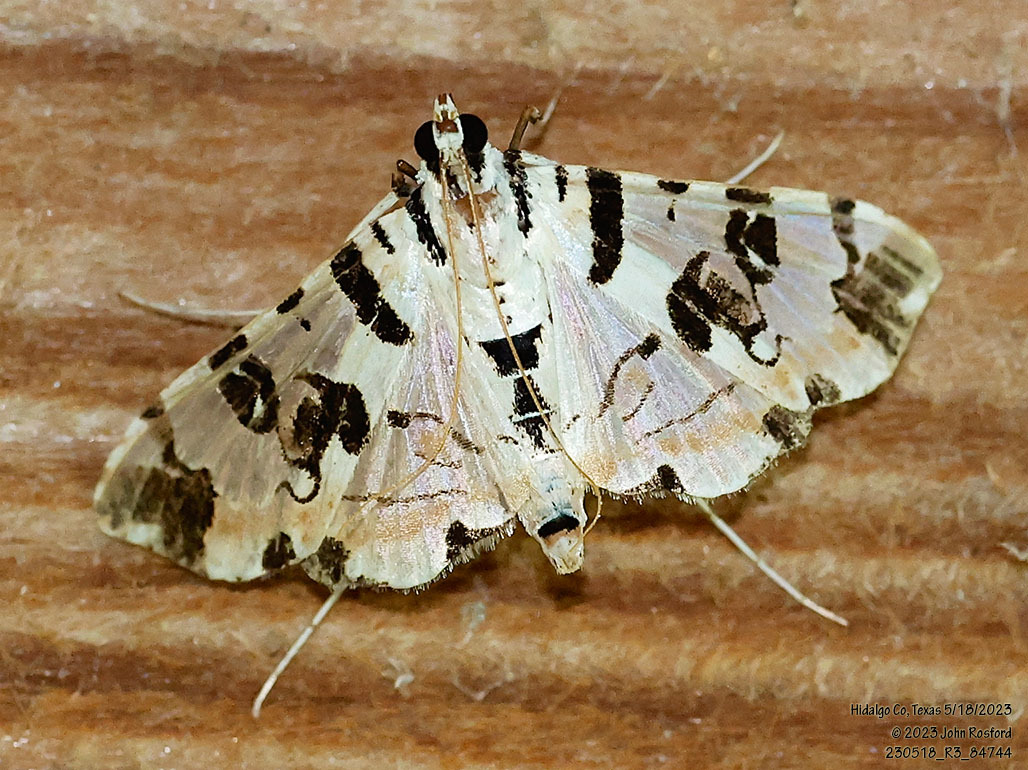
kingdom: Animalia
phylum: Arthropoda
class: Insecta
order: Lepidoptera
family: Crambidae
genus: Conchylodes
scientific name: Conchylodes salamisalis
